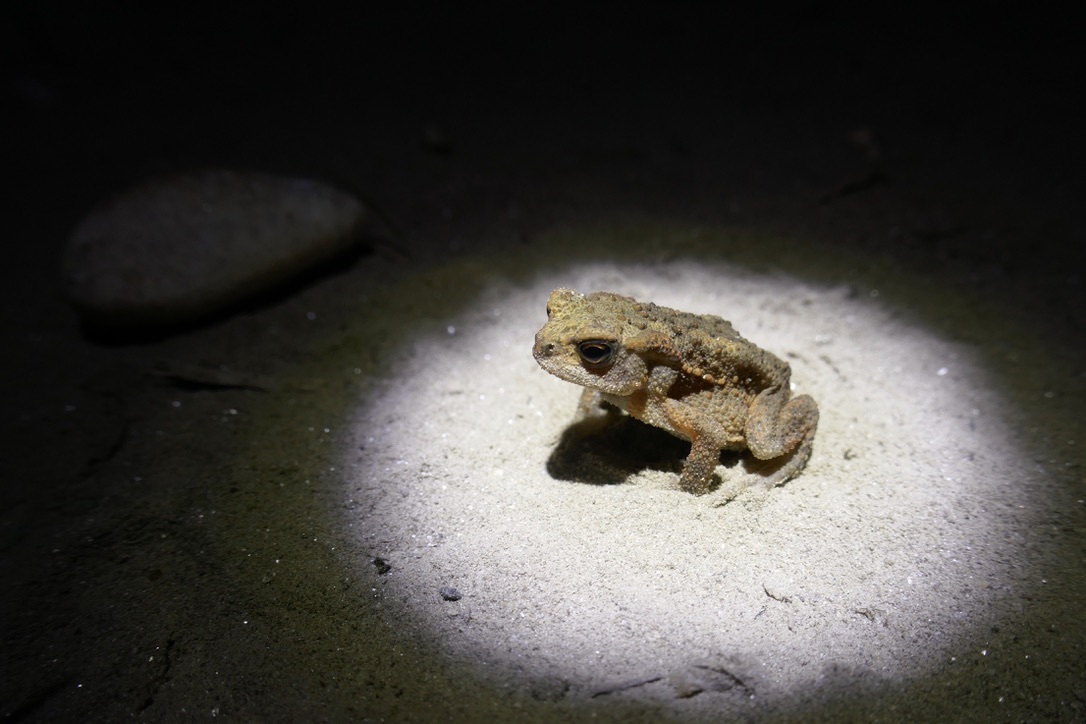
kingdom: Animalia
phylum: Chordata
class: Amphibia
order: Anura
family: Bufonidae
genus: Bufo
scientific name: Bufo bufo
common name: Common toad
